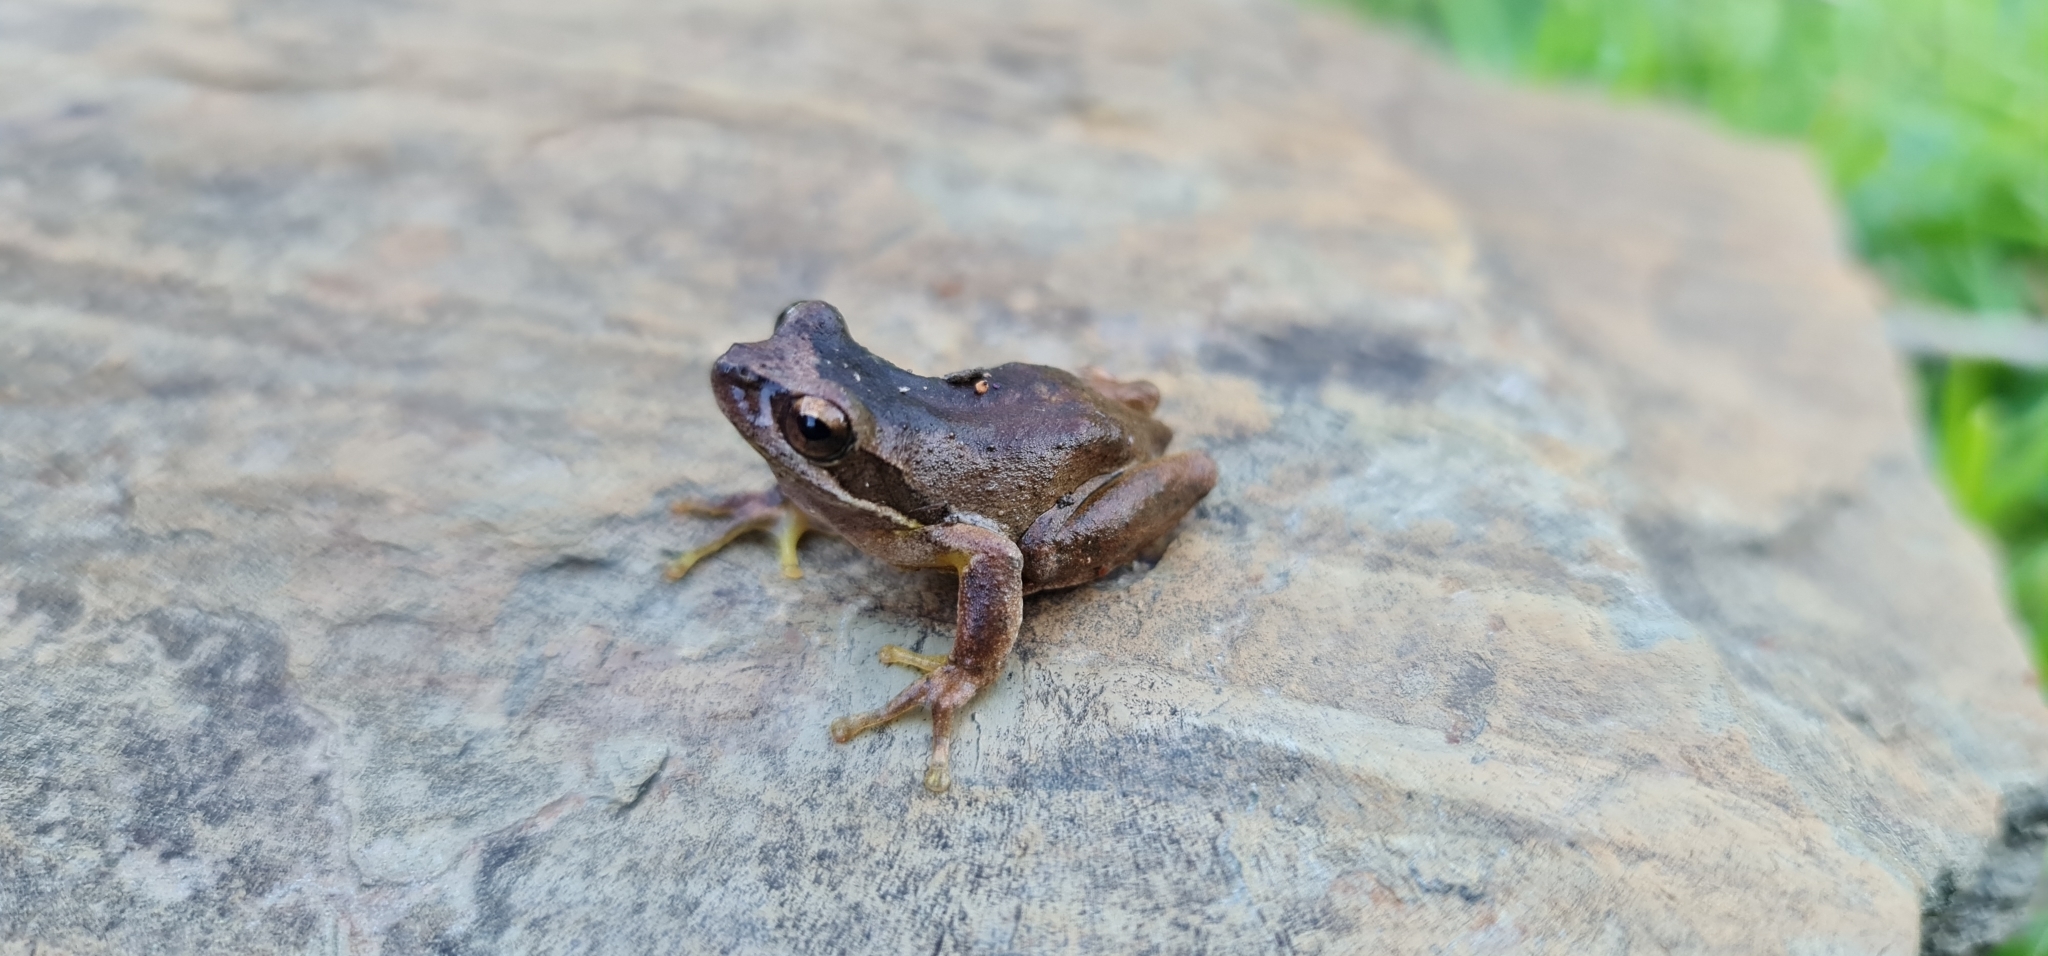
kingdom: Animalia
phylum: Chordata
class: Amphibia
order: Anura
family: Pelodryadidae
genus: Litoria
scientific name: Litoria
